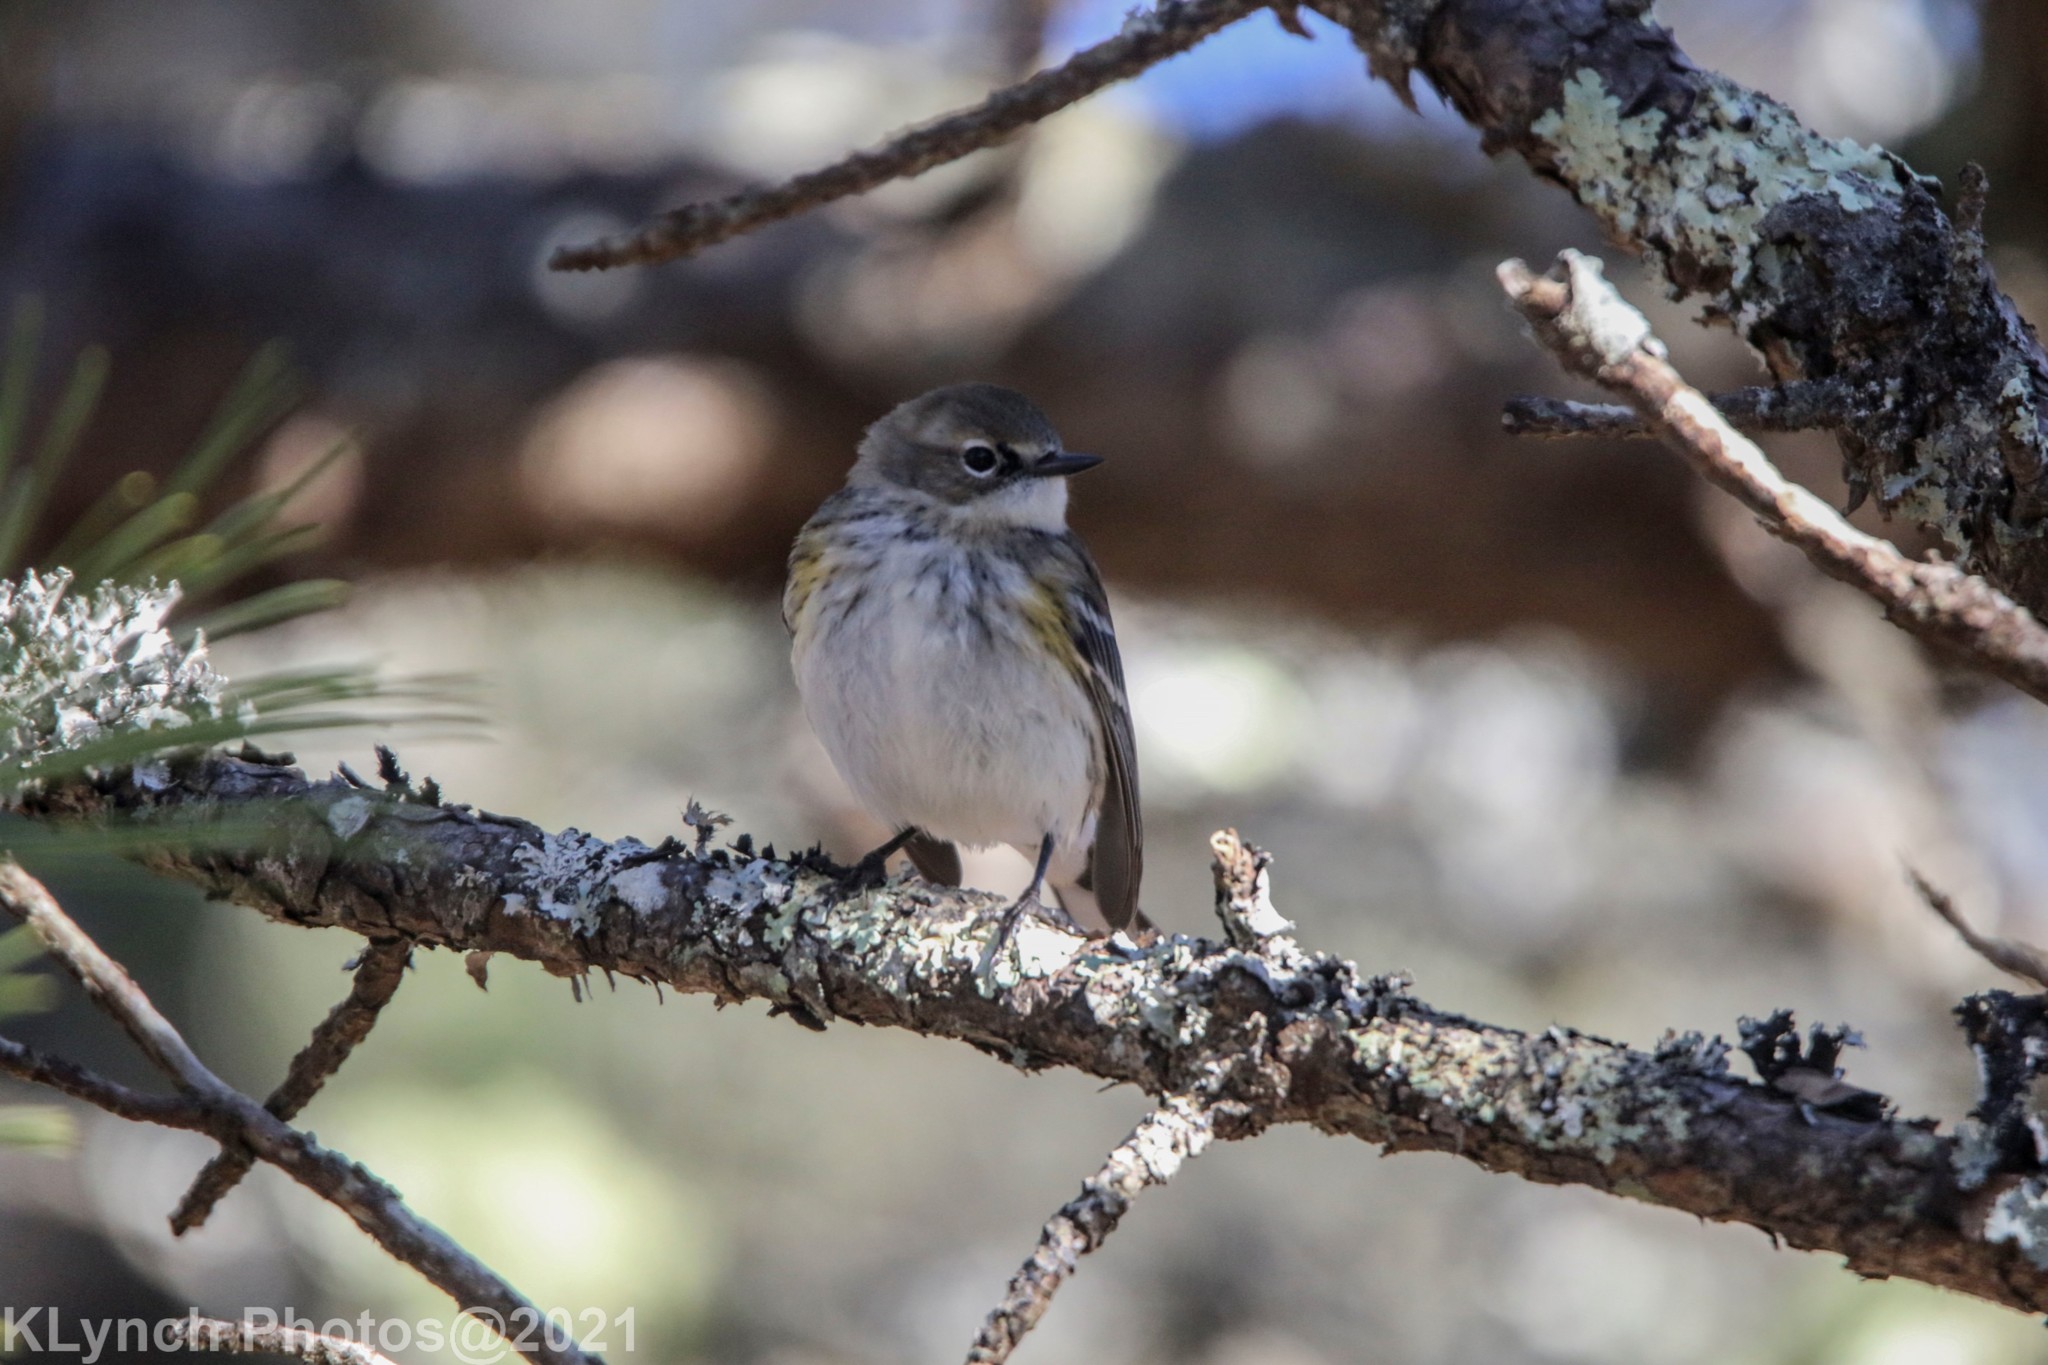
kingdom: Animalia
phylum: Chordata
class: Aves
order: Passeriformes
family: Parulidae
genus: Setophaga
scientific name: Setophaga coronata
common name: Myrtle warbler
